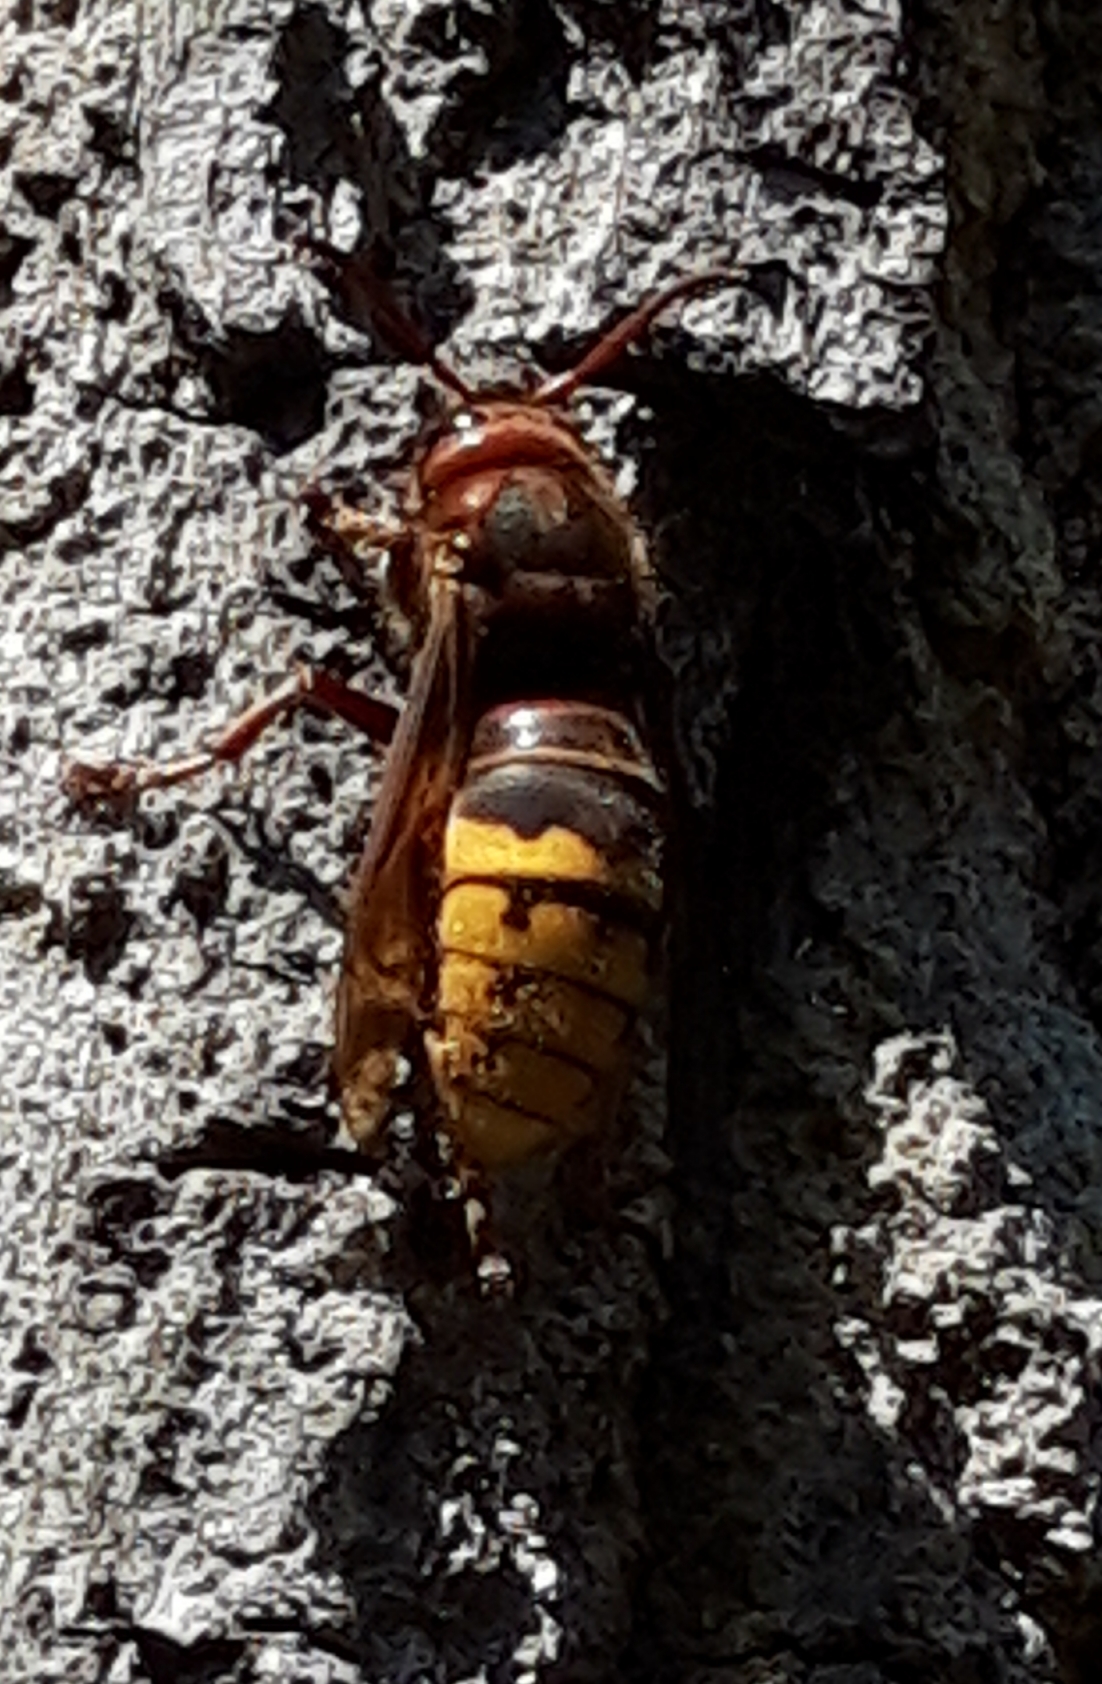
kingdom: Animalia
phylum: Arthropoda
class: Insecta
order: Hymenoptera
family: Vespidae
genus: Vespa
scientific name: Vespa crabro
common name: Hornet
